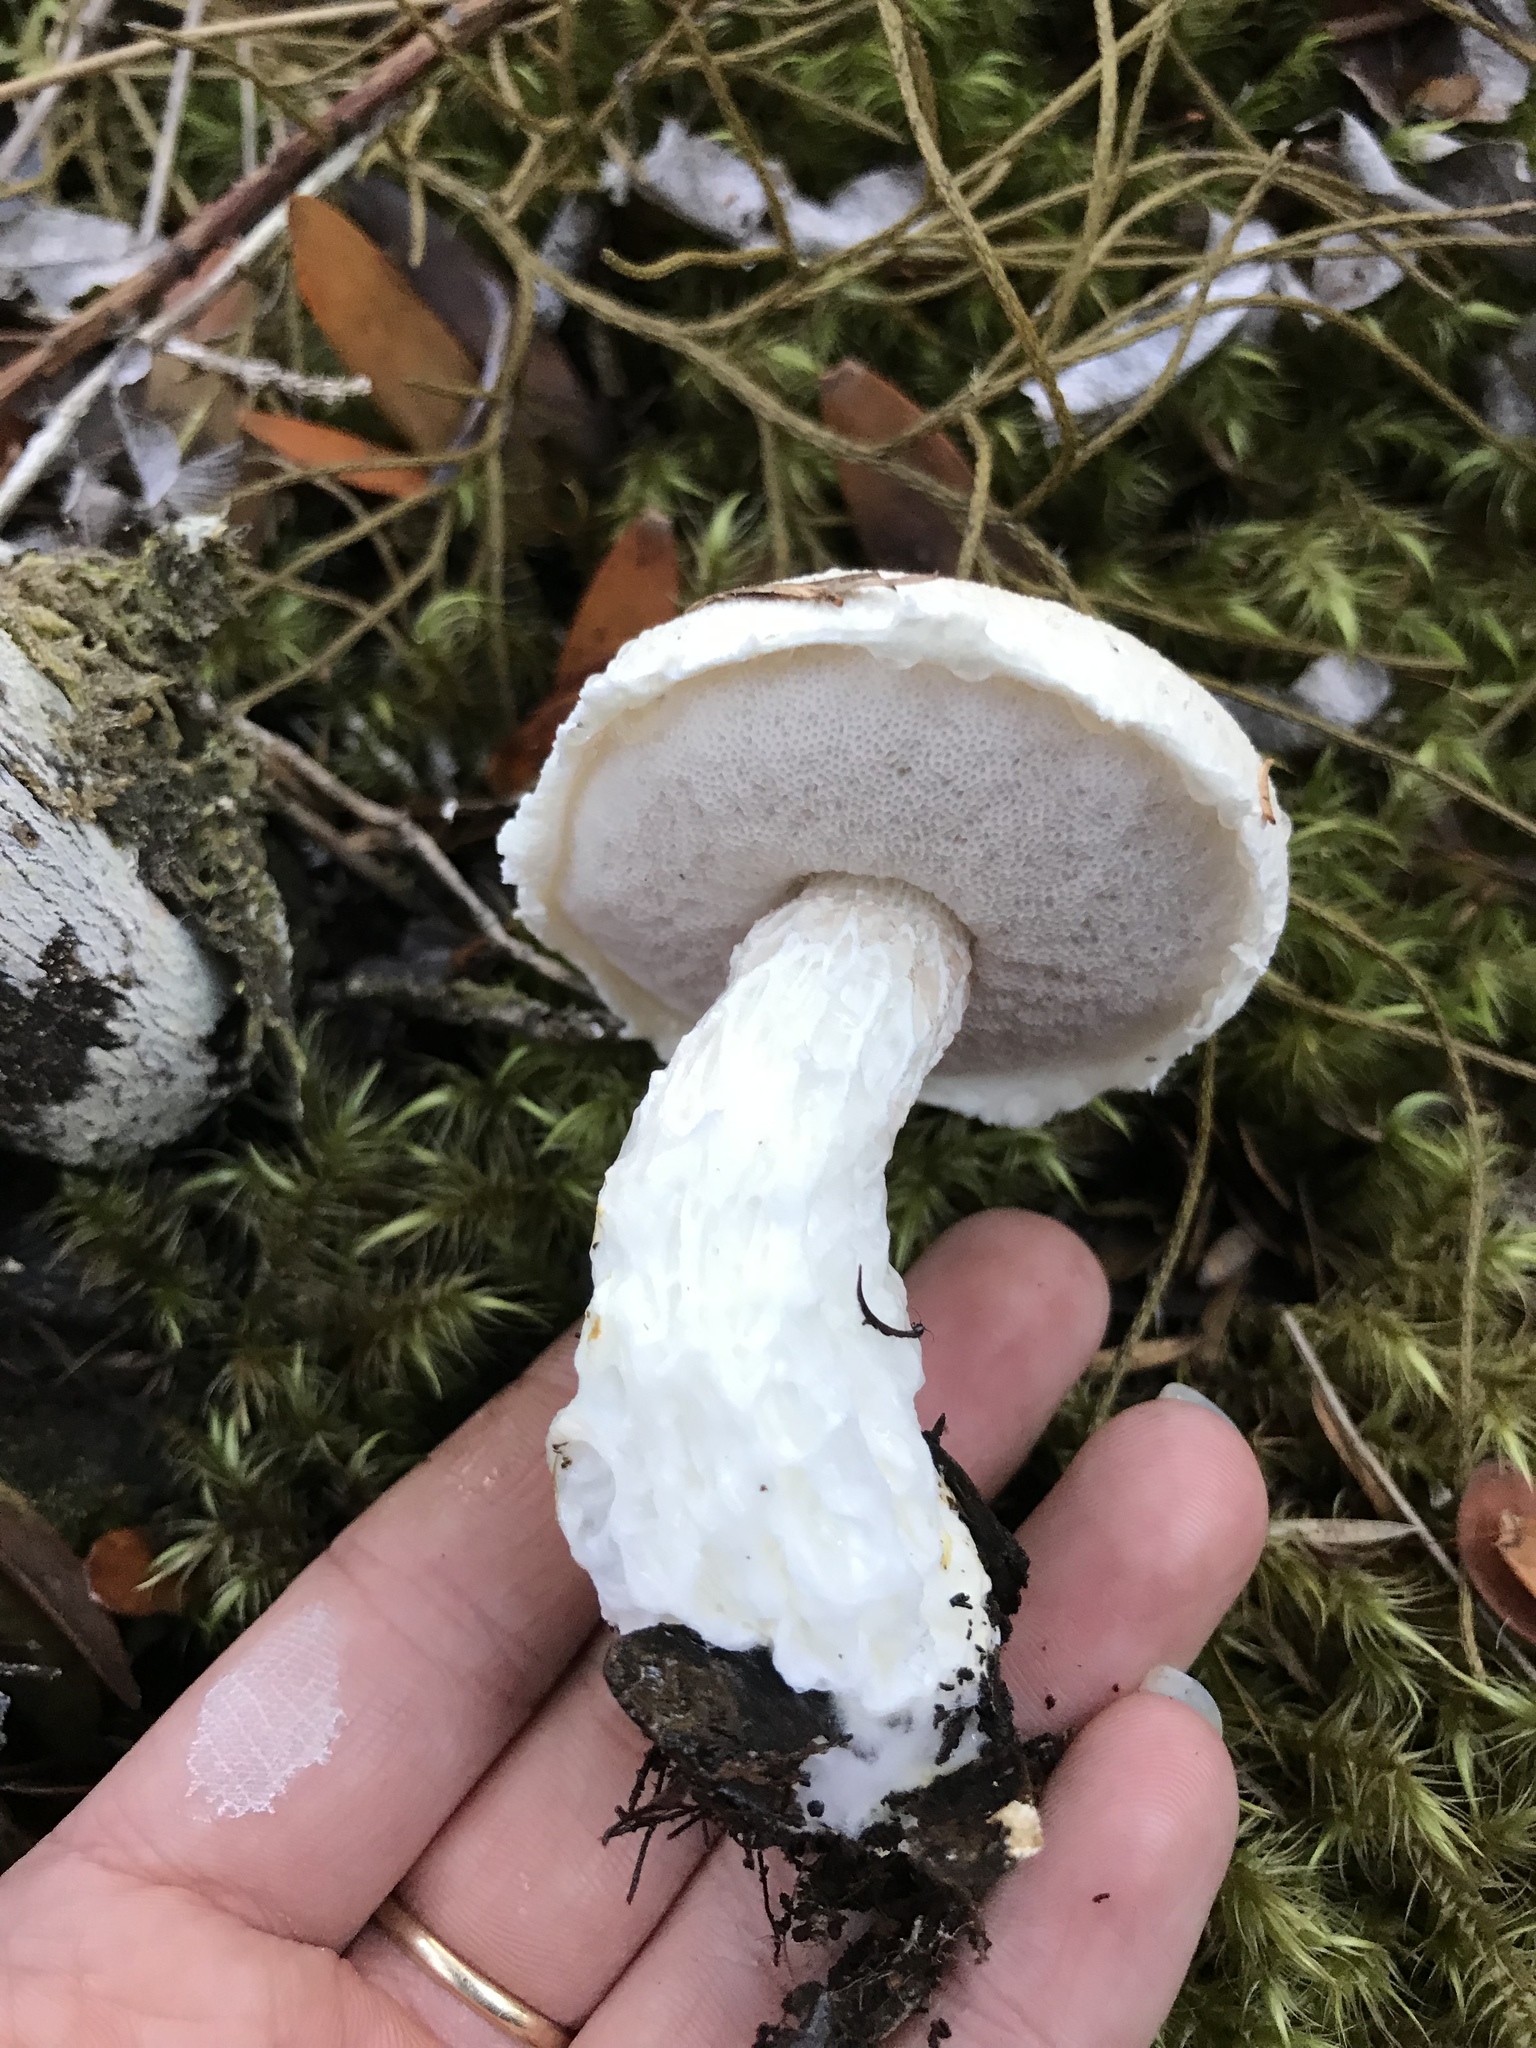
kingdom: Fungi
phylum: Basidiomycota
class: Agaricomycetes
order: Boletales
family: Boletaceae
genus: Fistulinella
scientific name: Fistulinella nivea
